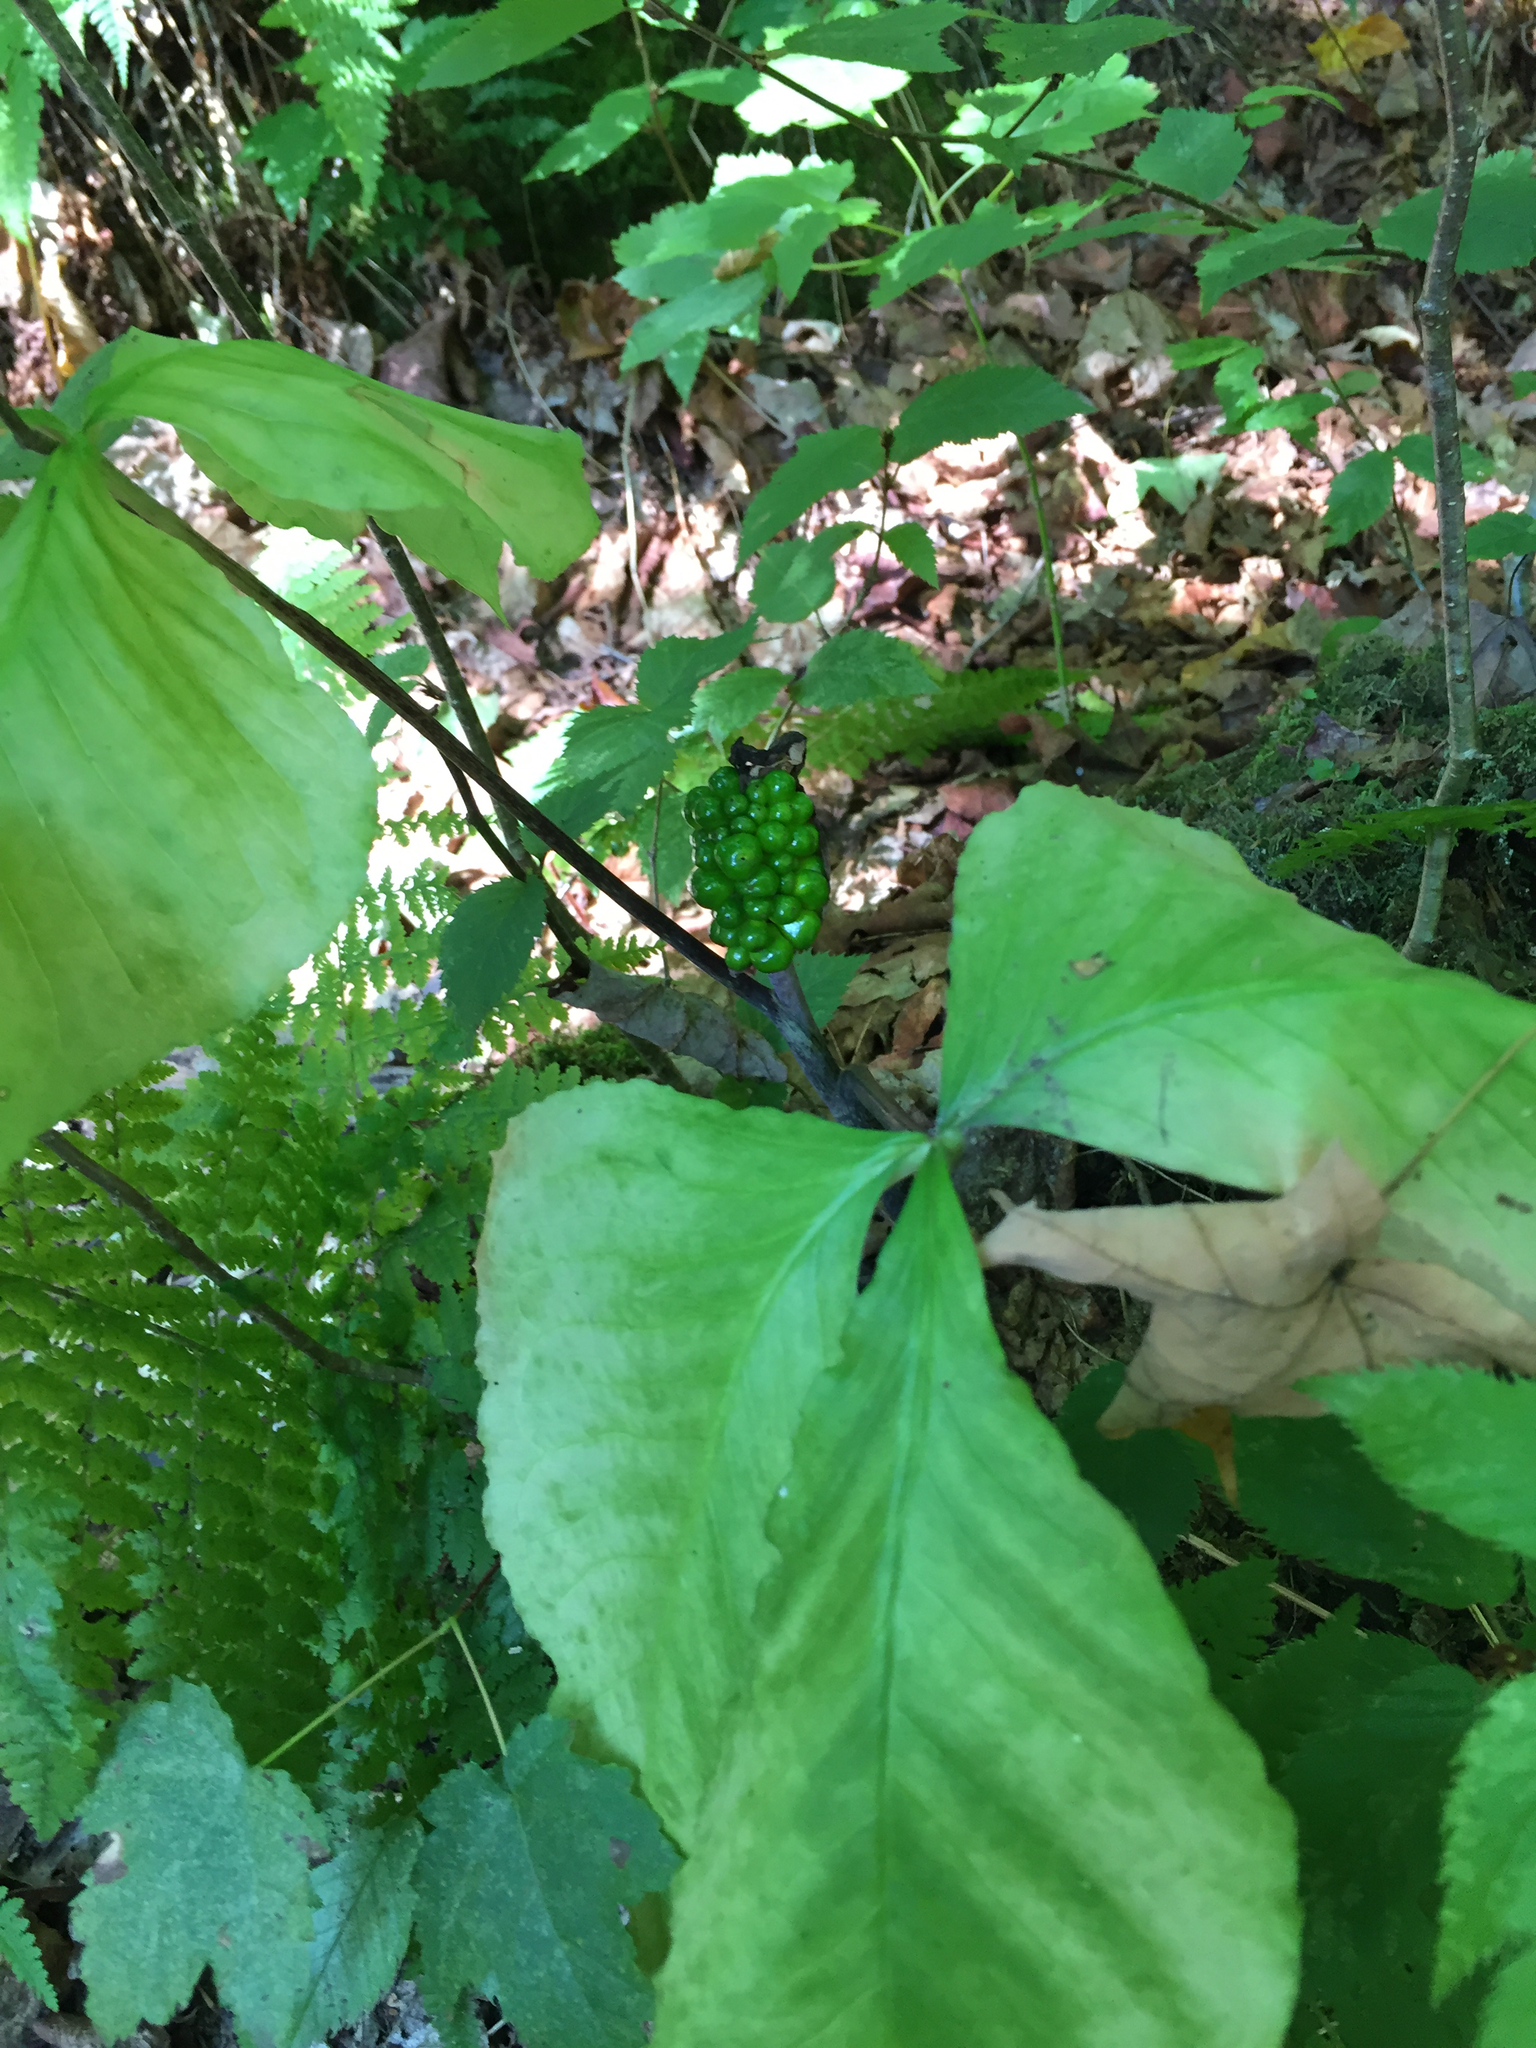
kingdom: Plantae
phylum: Tracheophyta
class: Liliopsida
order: Alismatales
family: Araceae
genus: Arisaema
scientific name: Arisaema triphyllum
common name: Jack-in-the-pulpit
